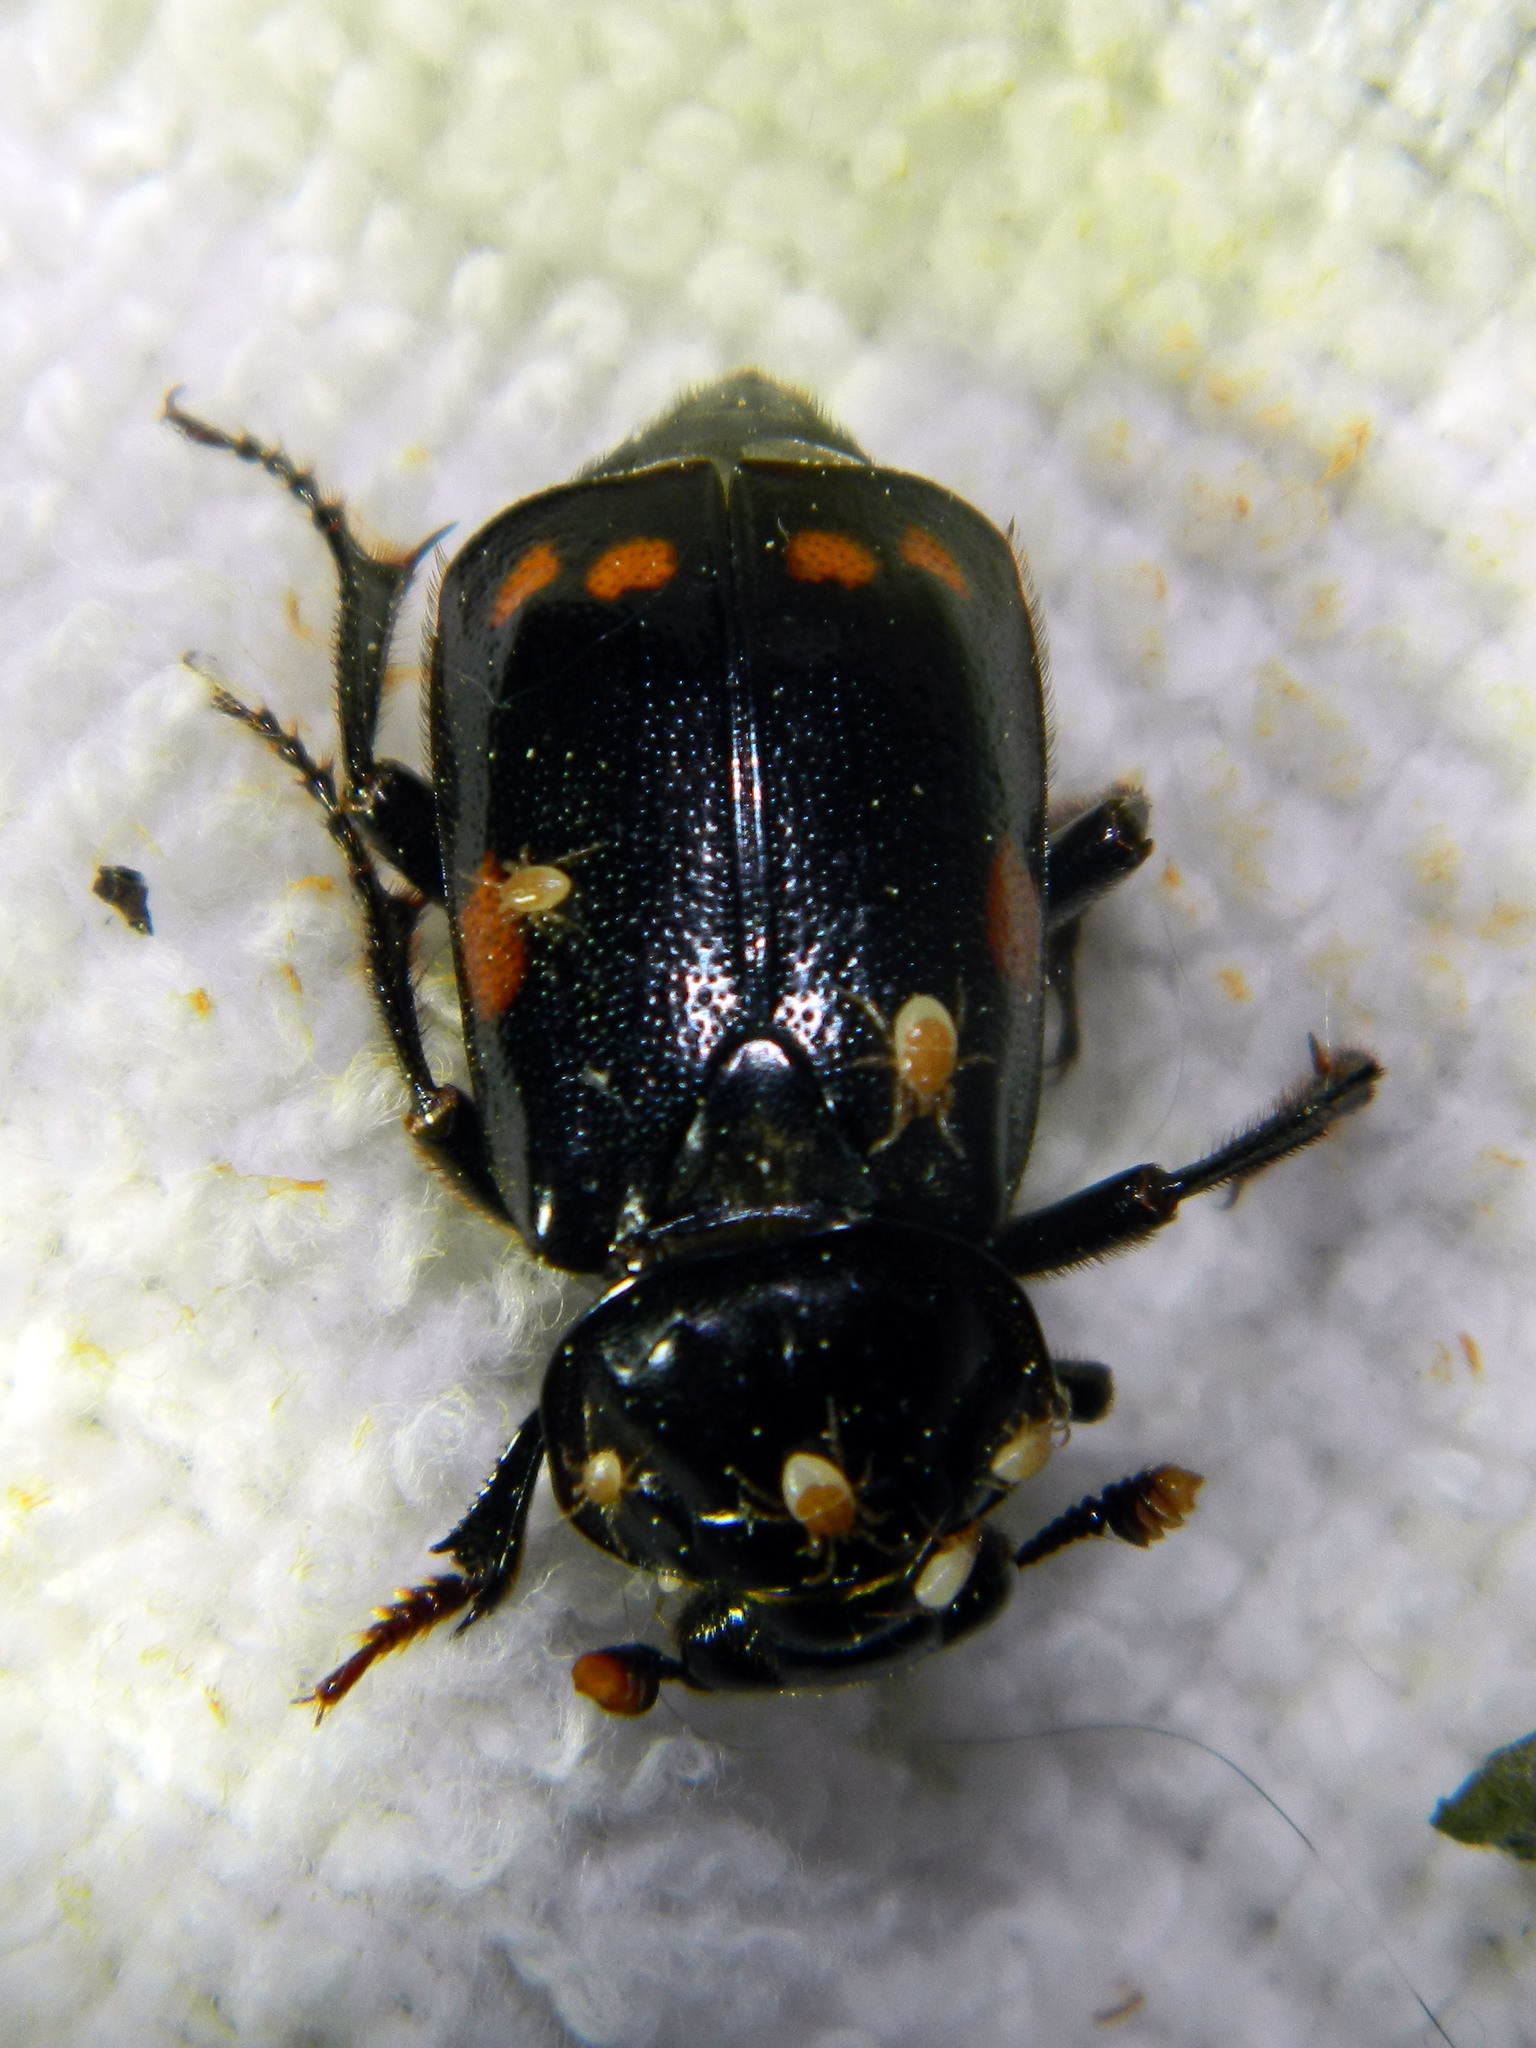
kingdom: Animalia
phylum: Arthropoda
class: Insecta
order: Coleoptera
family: Staphylinidae
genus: Nicrophorus
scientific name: Nicrophorus pustulatus
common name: Pustulated carrion beetle
